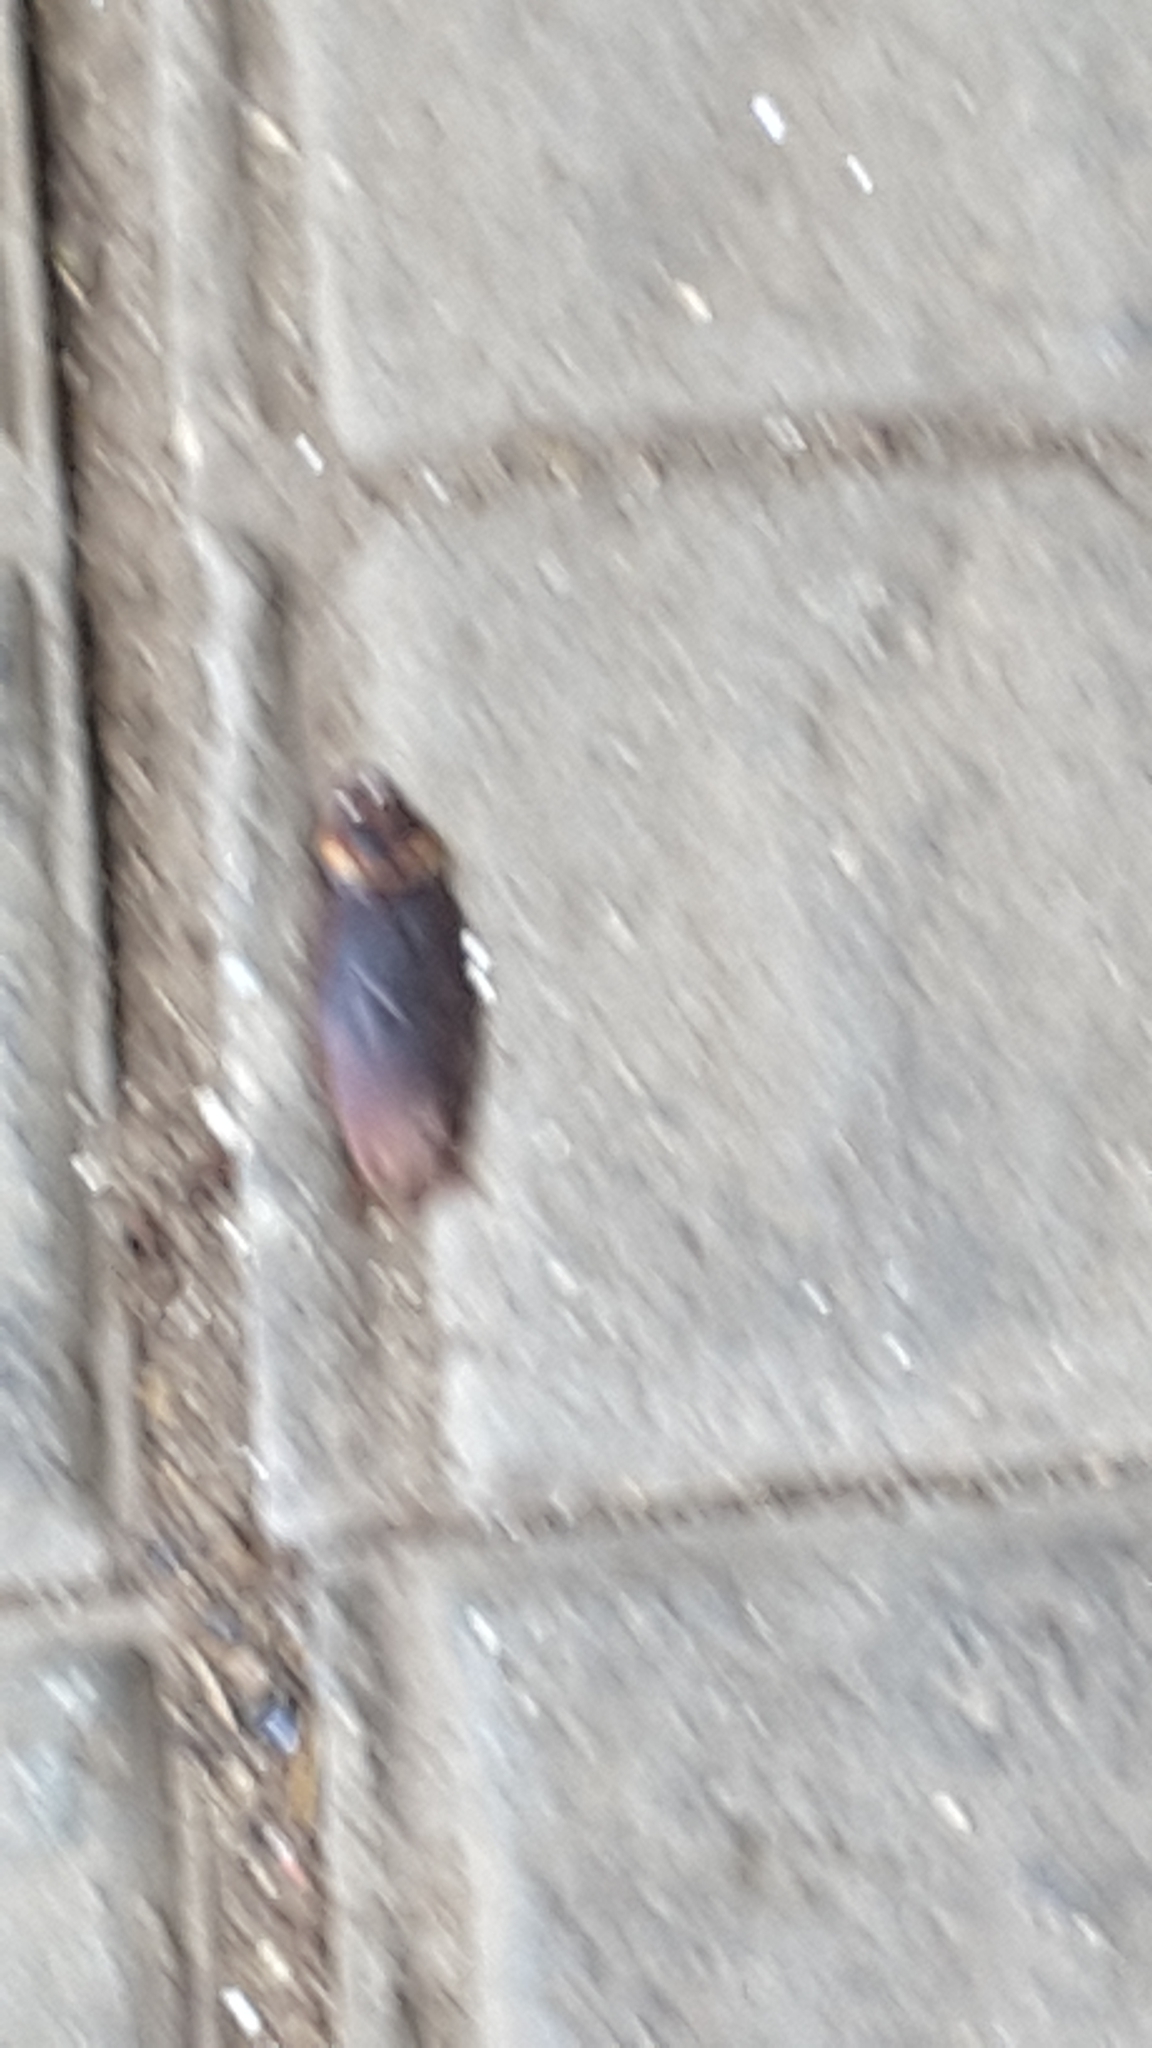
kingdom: Animalia
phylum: Arthropoda
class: Insecta
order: Blattodea
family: Blattidae
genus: Periplaneta
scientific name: Periplaneta americana
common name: American cockroach
